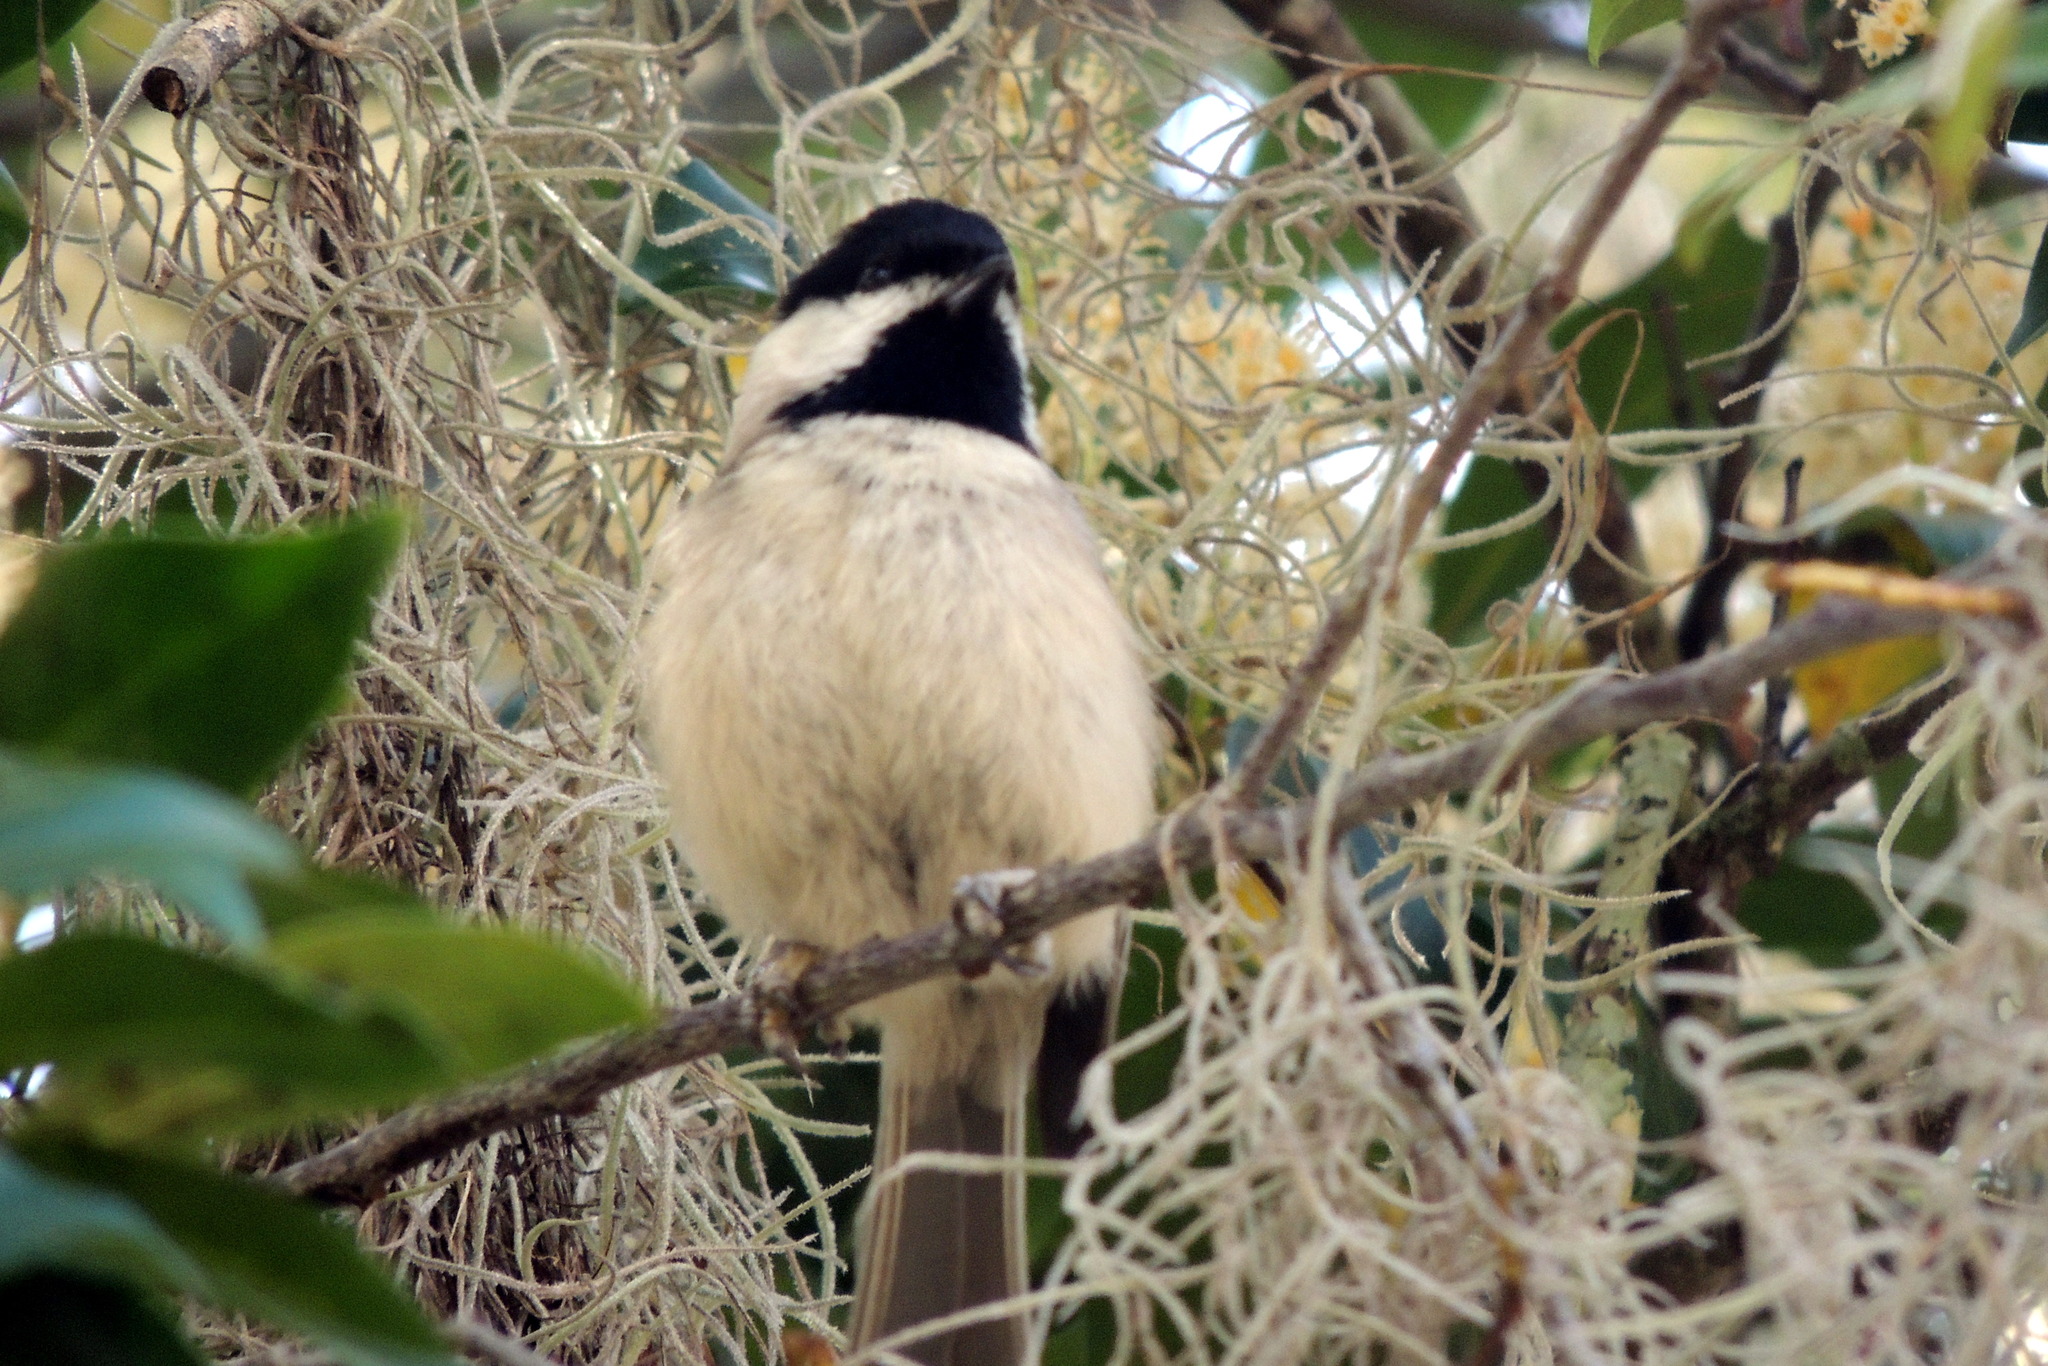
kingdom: Animalia
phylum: Chordata
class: Aves
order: Passeriformes
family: Paridae
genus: Poecile
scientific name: Poecile carolinensis
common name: Carolina chickadee
